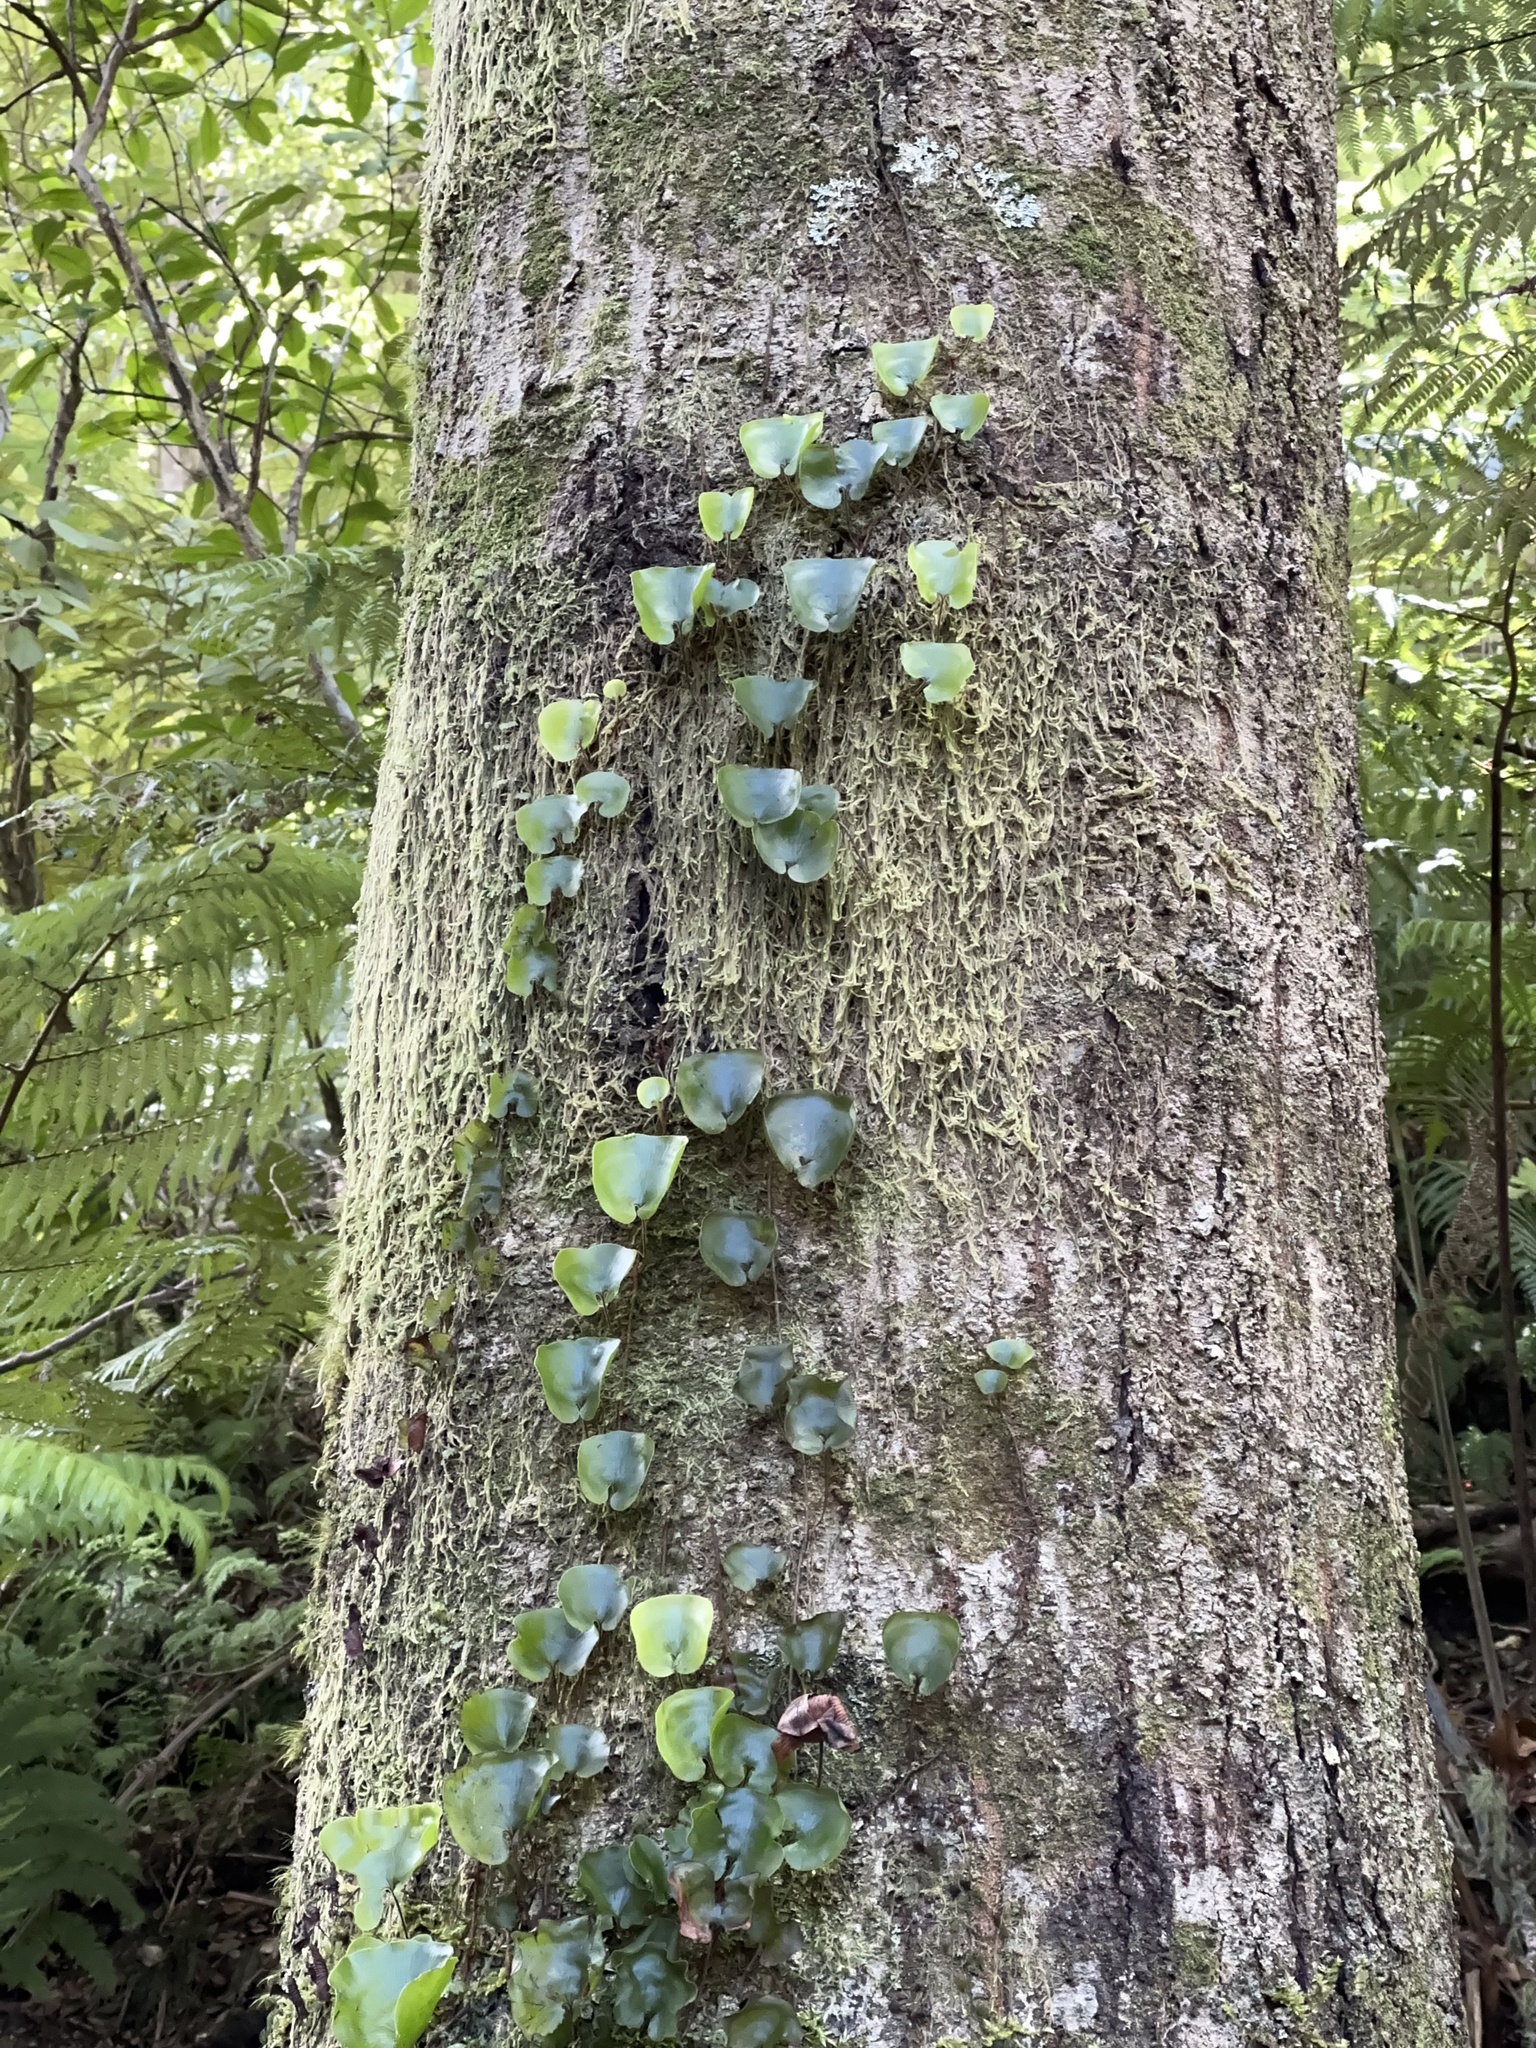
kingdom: Plantae
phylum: Tracheophyta
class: Polypodiopsida
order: Hymenophyllales
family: Hymenophyllaceae
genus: Hymenophyllum
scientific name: Hymenophyllum nephrophyllum
